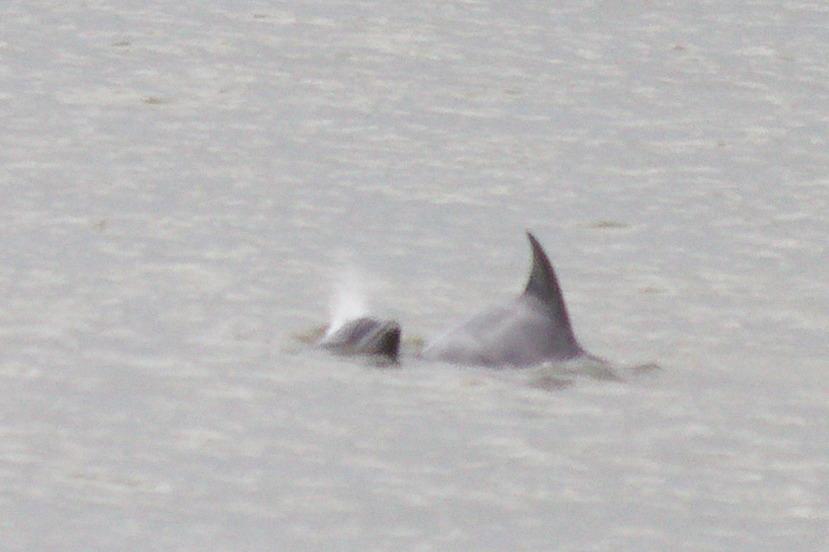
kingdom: Animalia
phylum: Chordata
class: Mammalia
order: Cetacea
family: Delphinidae
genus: Tursiops
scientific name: Tursiops truncatus
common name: Bottlenose dolphin
